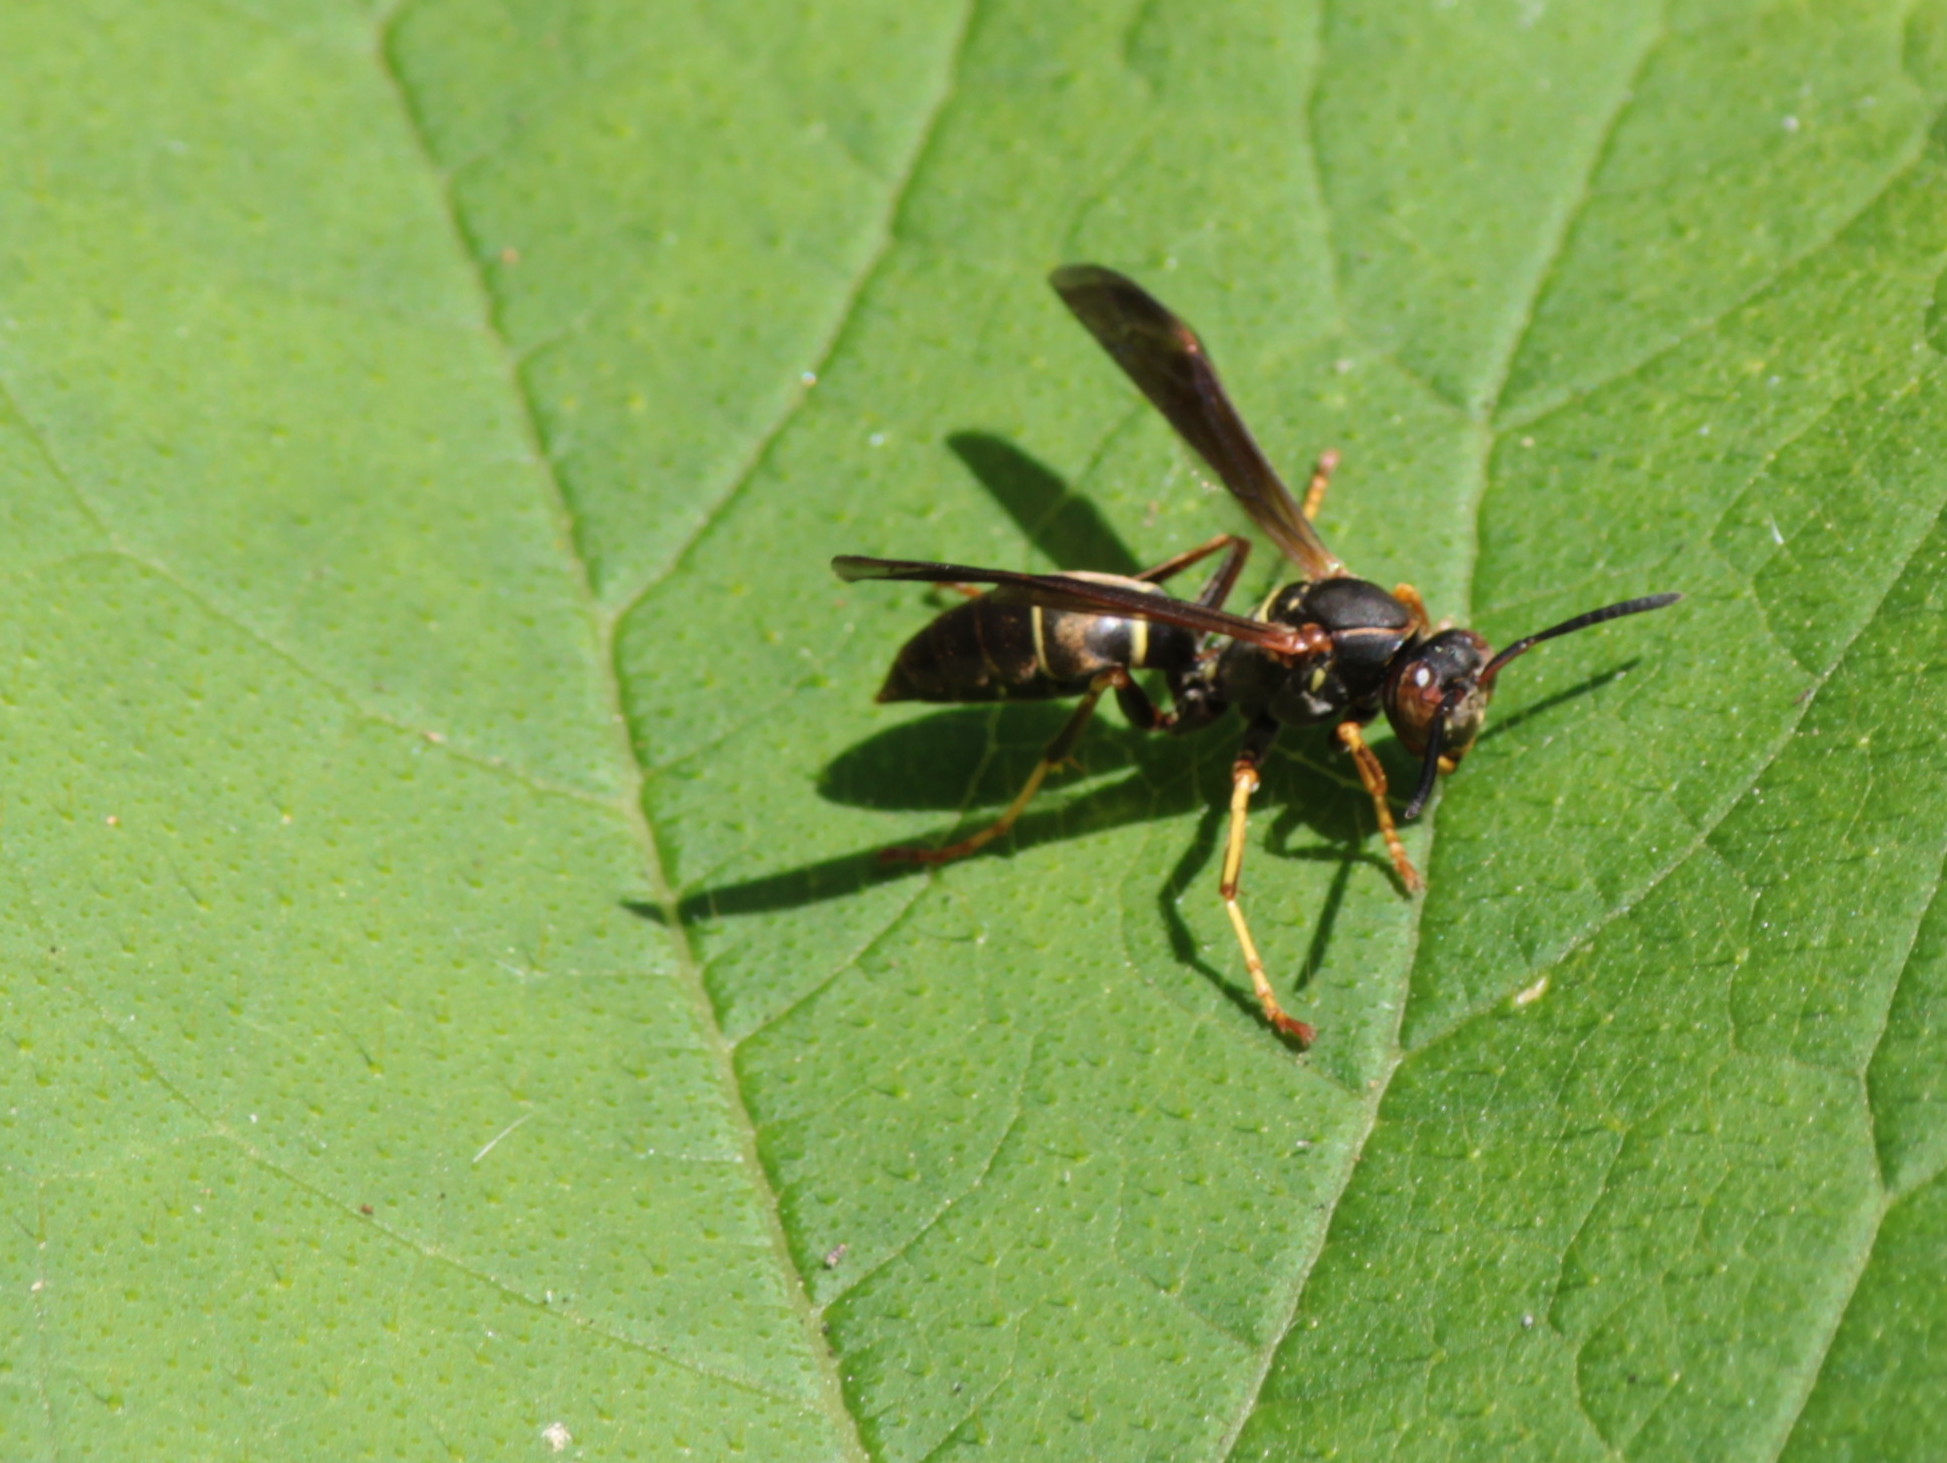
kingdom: Animalia
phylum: Arthropoda
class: Insecta
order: Hymenoptera
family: Eumenidae
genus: Polistes
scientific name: Polistes fuscatus
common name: Dark paper wasp
